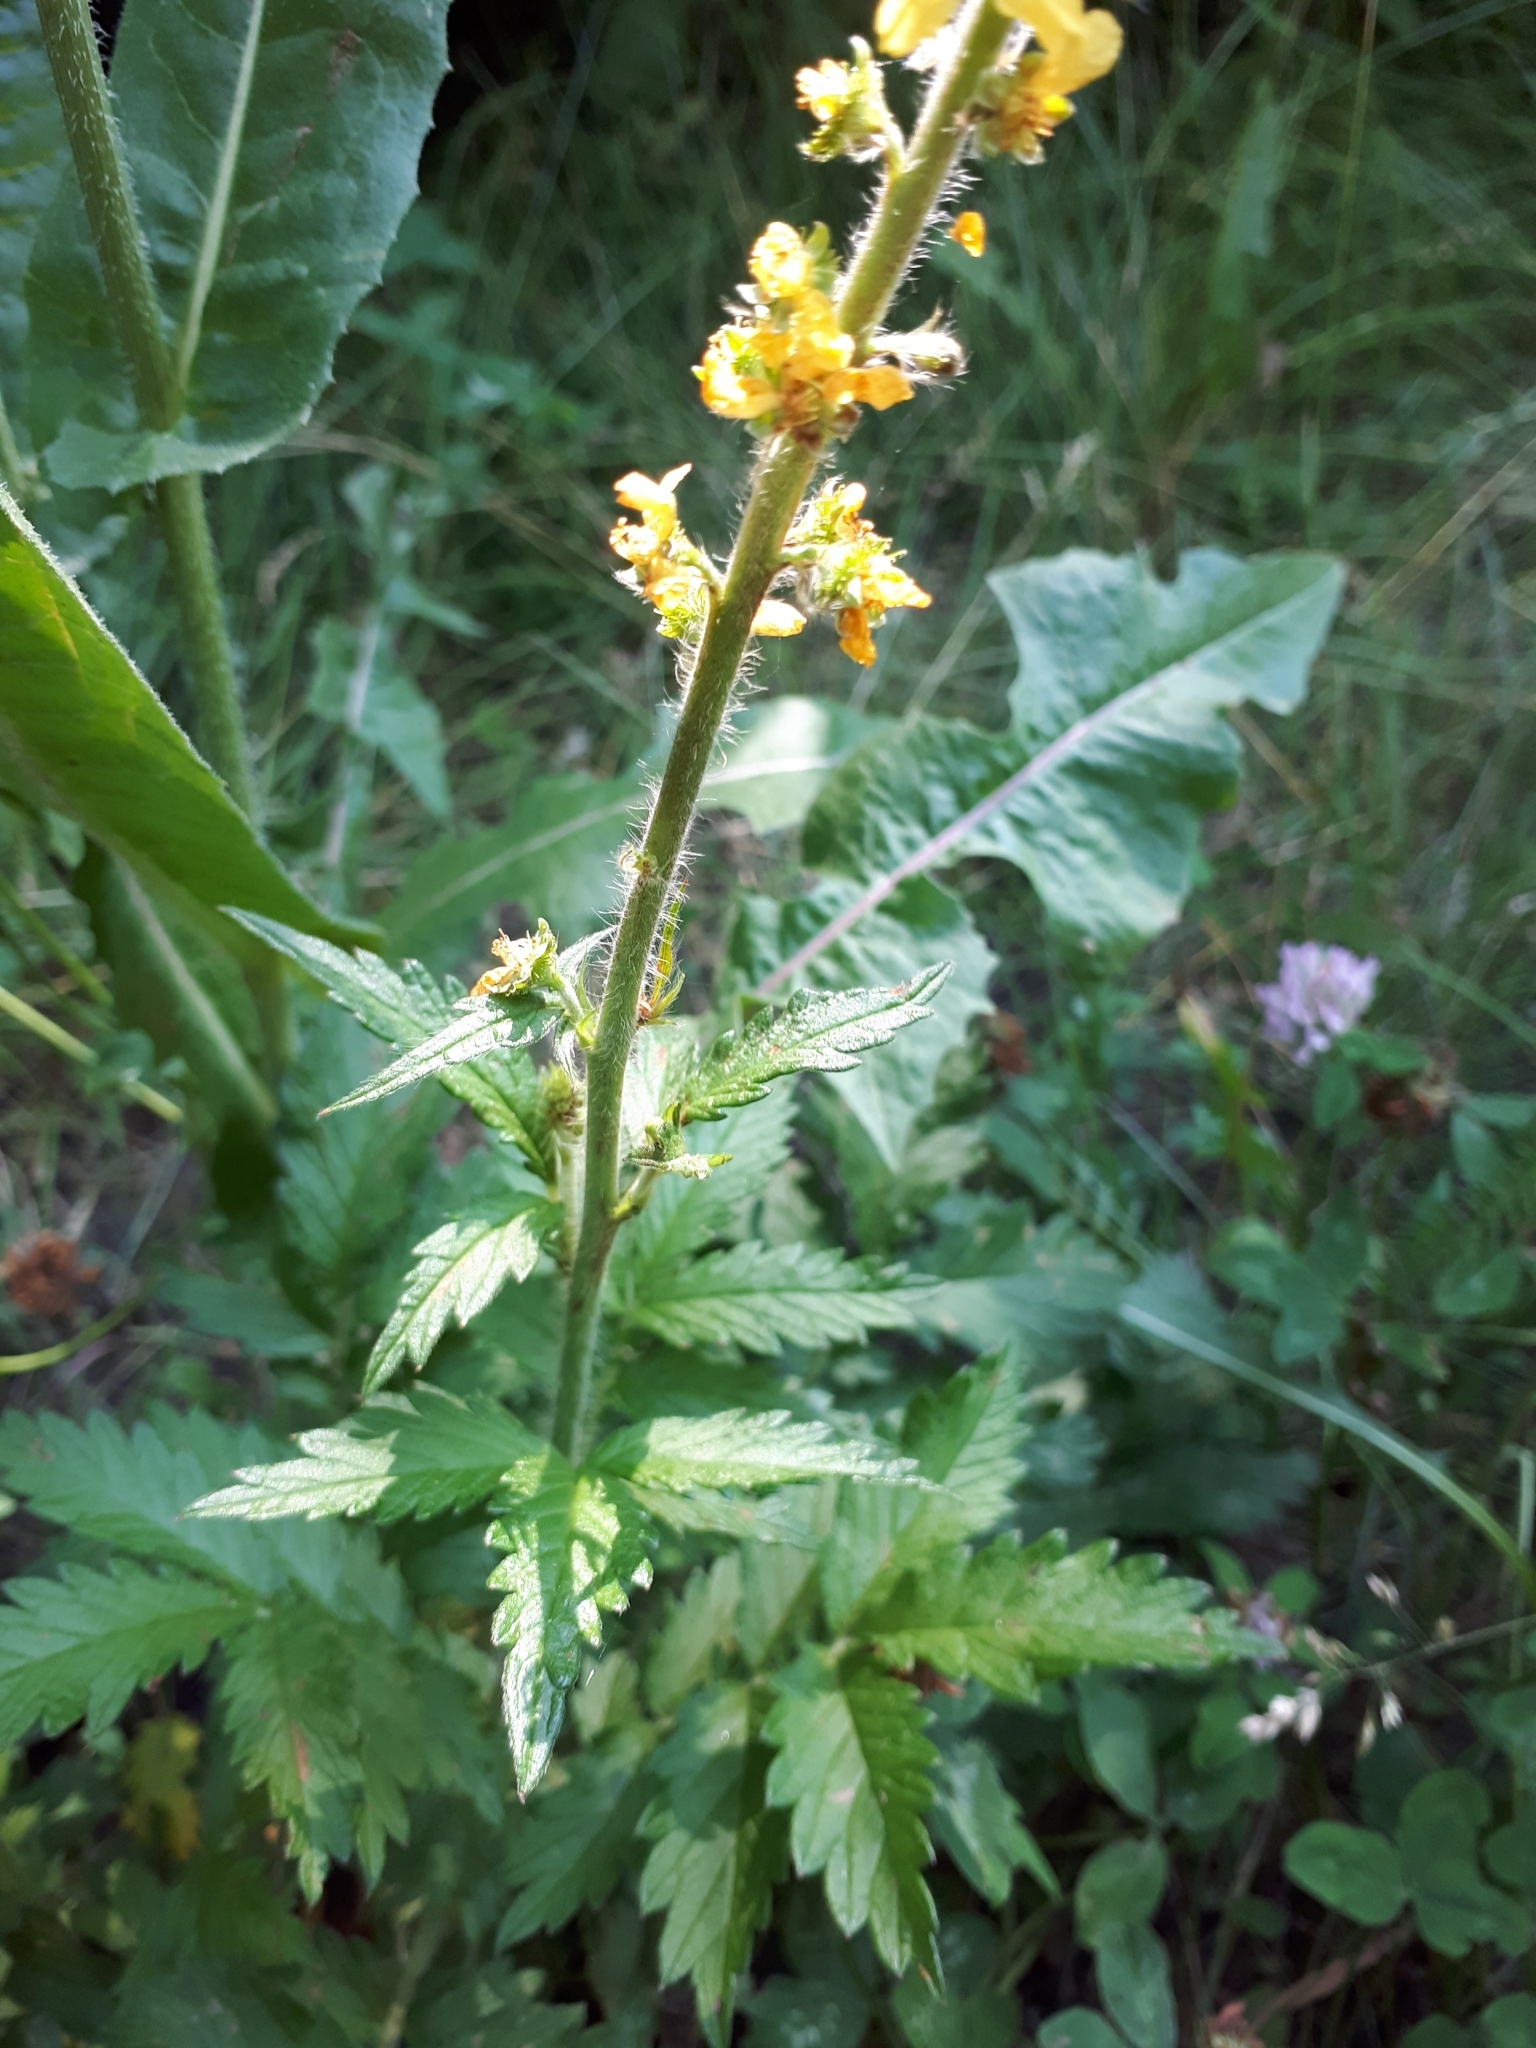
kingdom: Plantae
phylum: Tracheophyta
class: Magnoliopsida
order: Rosales
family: Rosaceae
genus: Agrimonia
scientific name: Agrimonia eupatoria
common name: Agrimony
